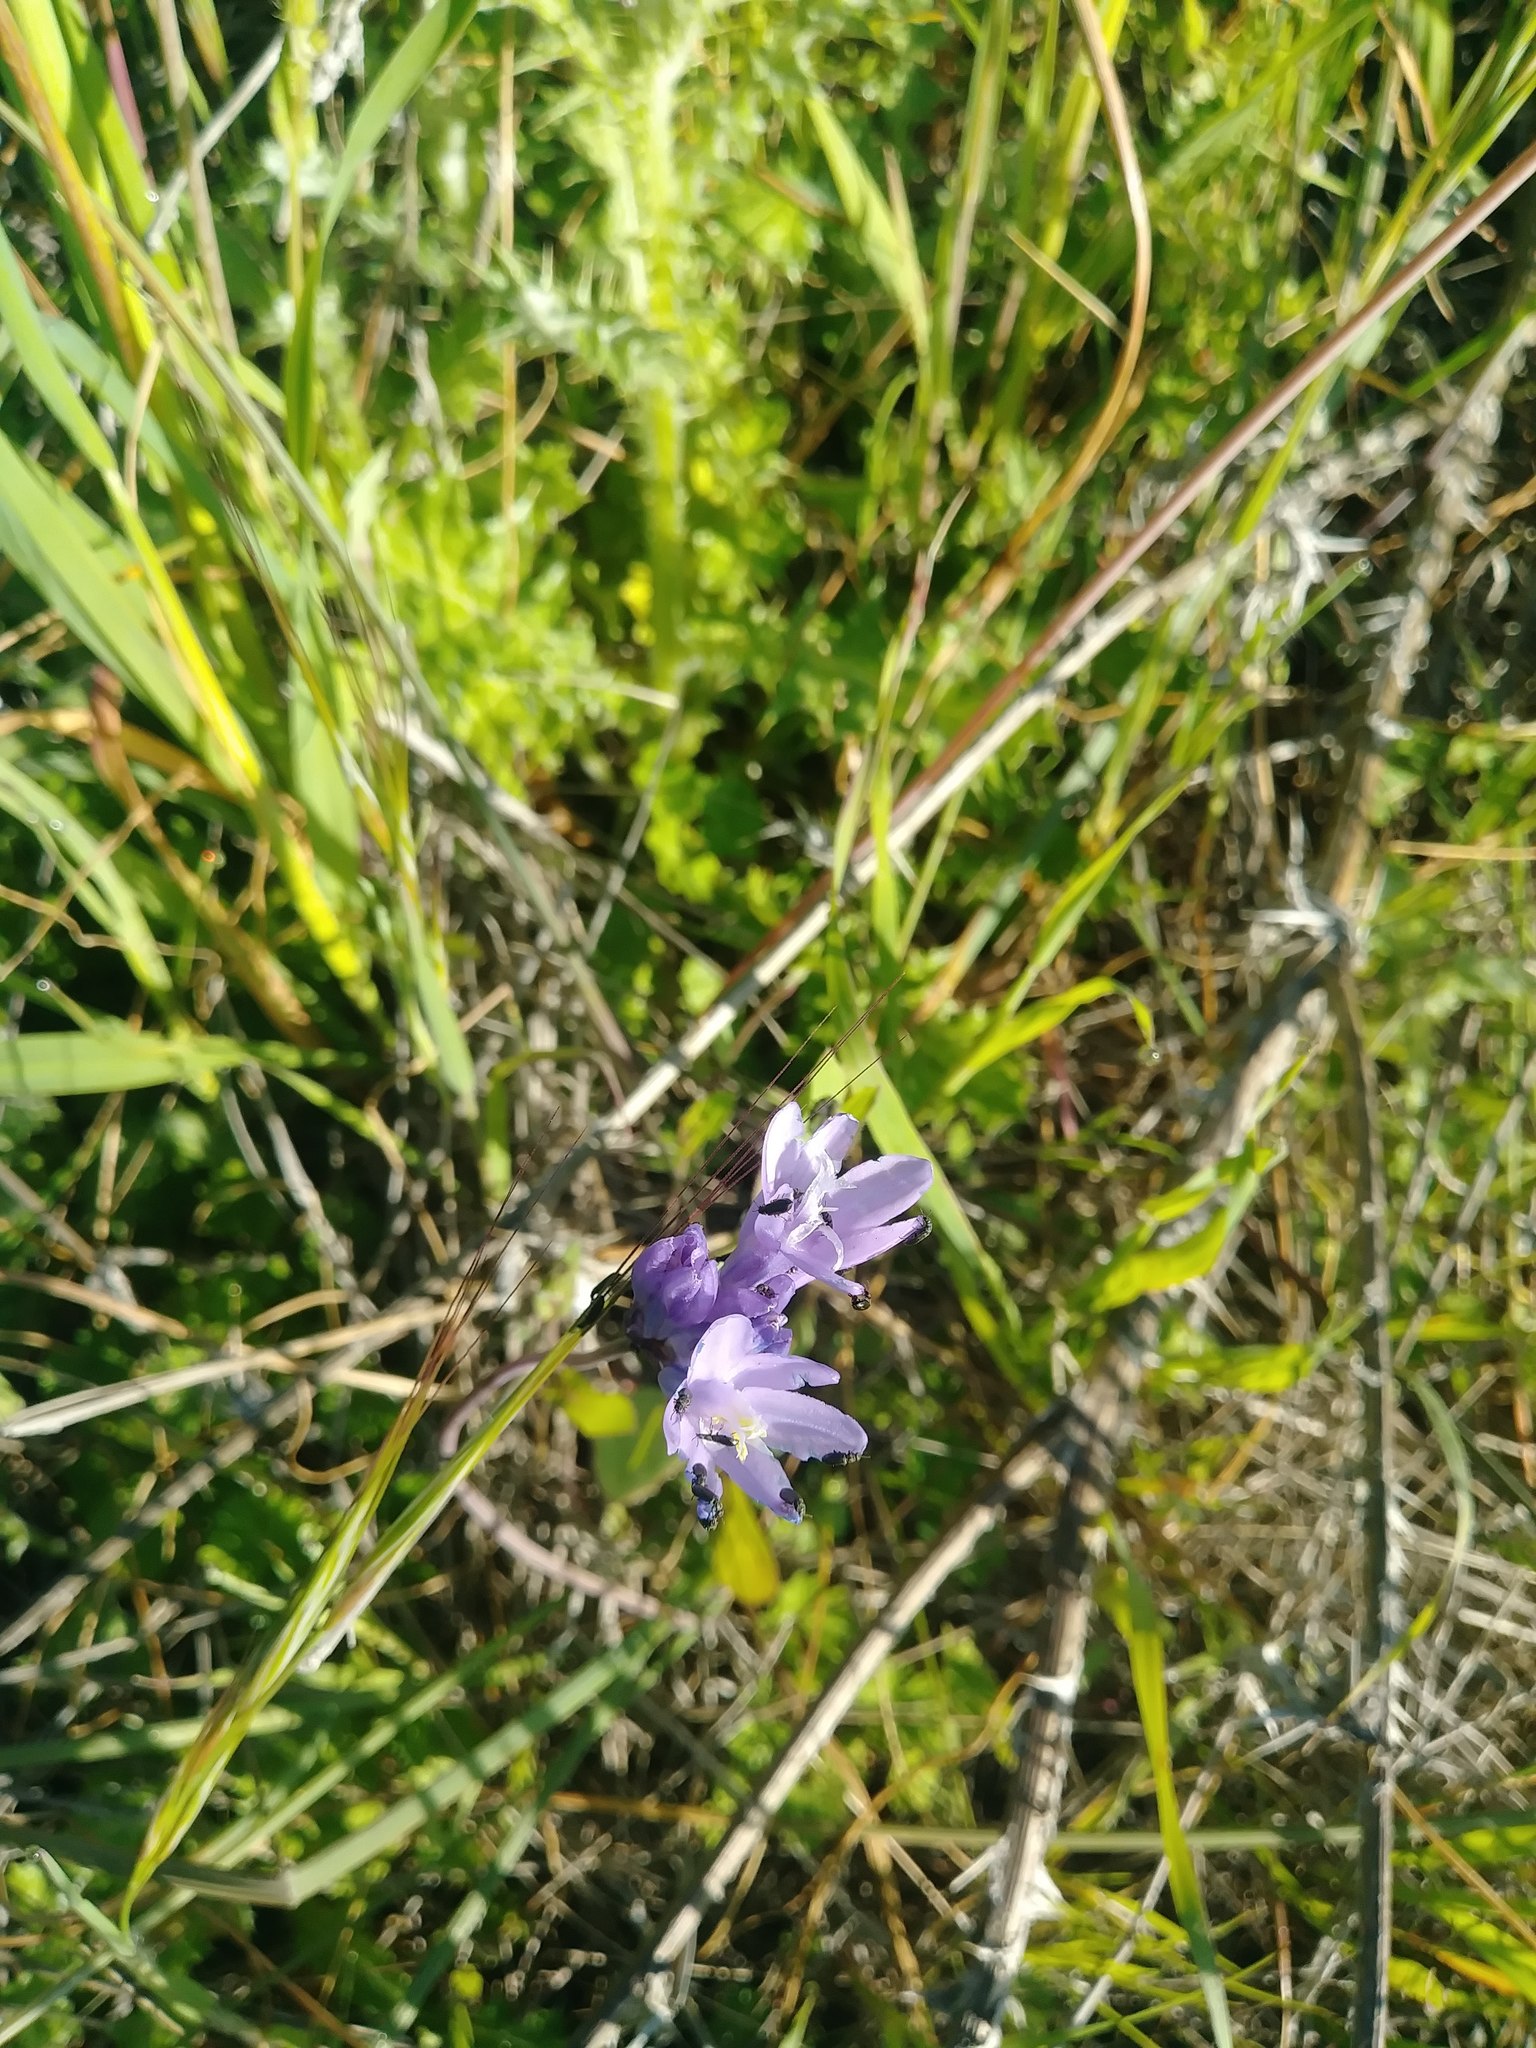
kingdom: Plantae
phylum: Tracheophyta
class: Liliopsida
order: Asparagales
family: Asparagaceae
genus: Dipterostemon
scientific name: Dipterostemon capitatus
